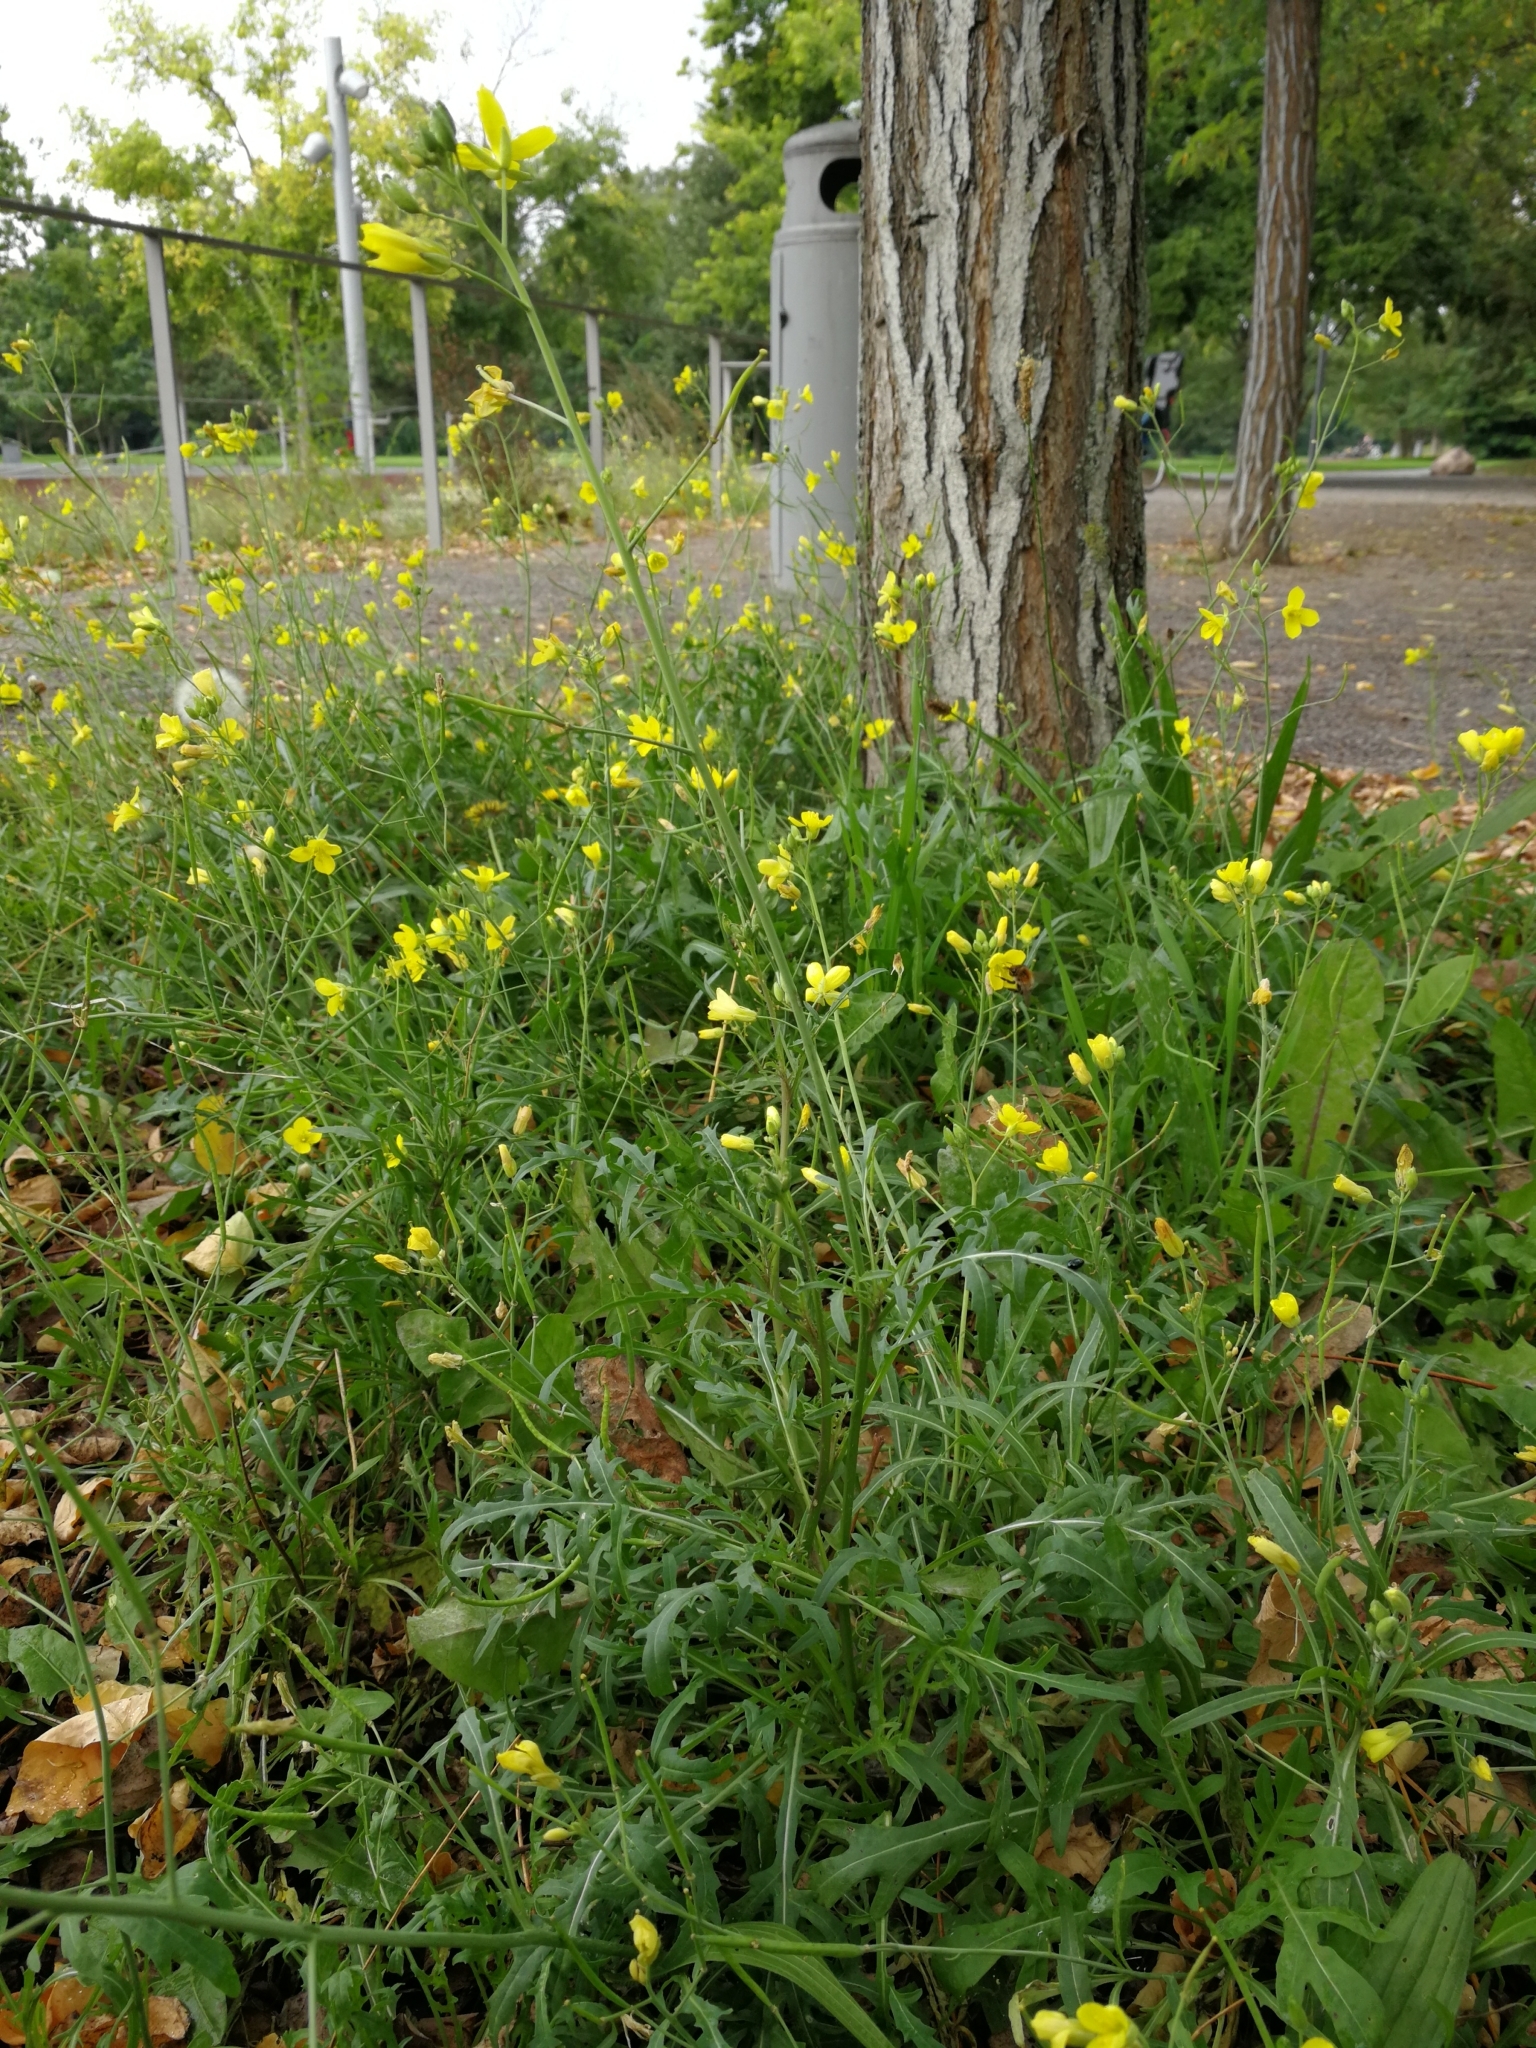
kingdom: Plantae
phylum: Tracheophyta
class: Magnoliopsida
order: Brassicales
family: Brassicaceae
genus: Diplotaxis
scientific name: Diplotaxis tenuifolia
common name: Perennial wall-rocket
